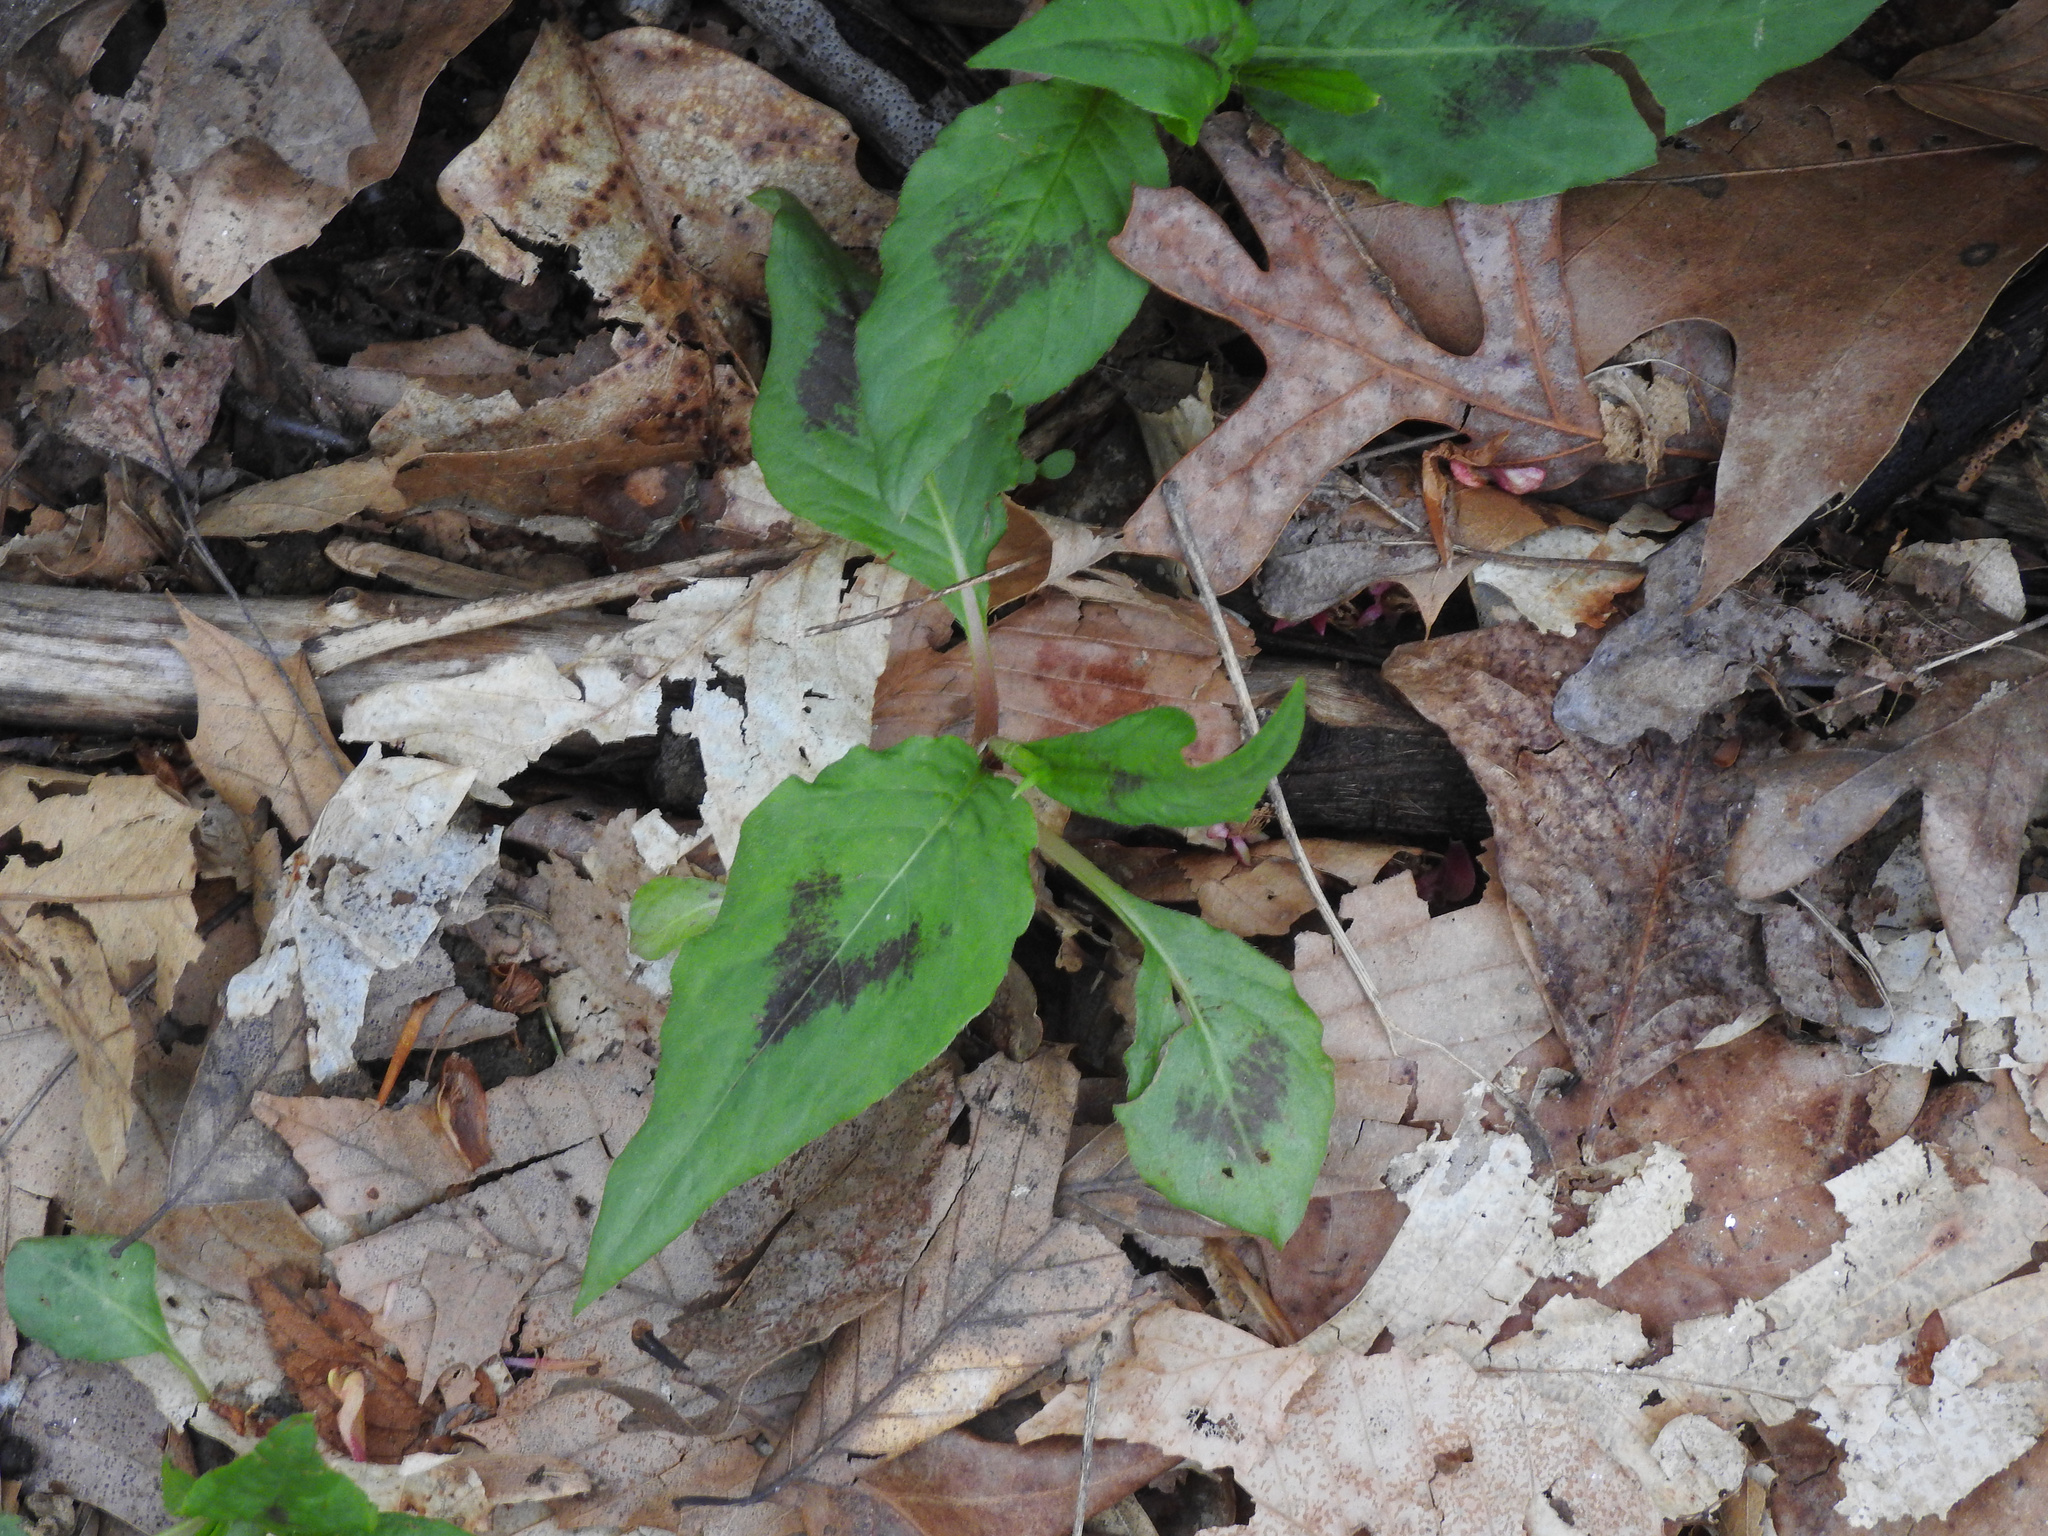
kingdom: Plantae
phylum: Tracheophyta
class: Magnoliopsida
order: Caryophyllales
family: Polygonaceae
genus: Persicaria
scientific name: Persicaria virginiana
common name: Jumpseed
